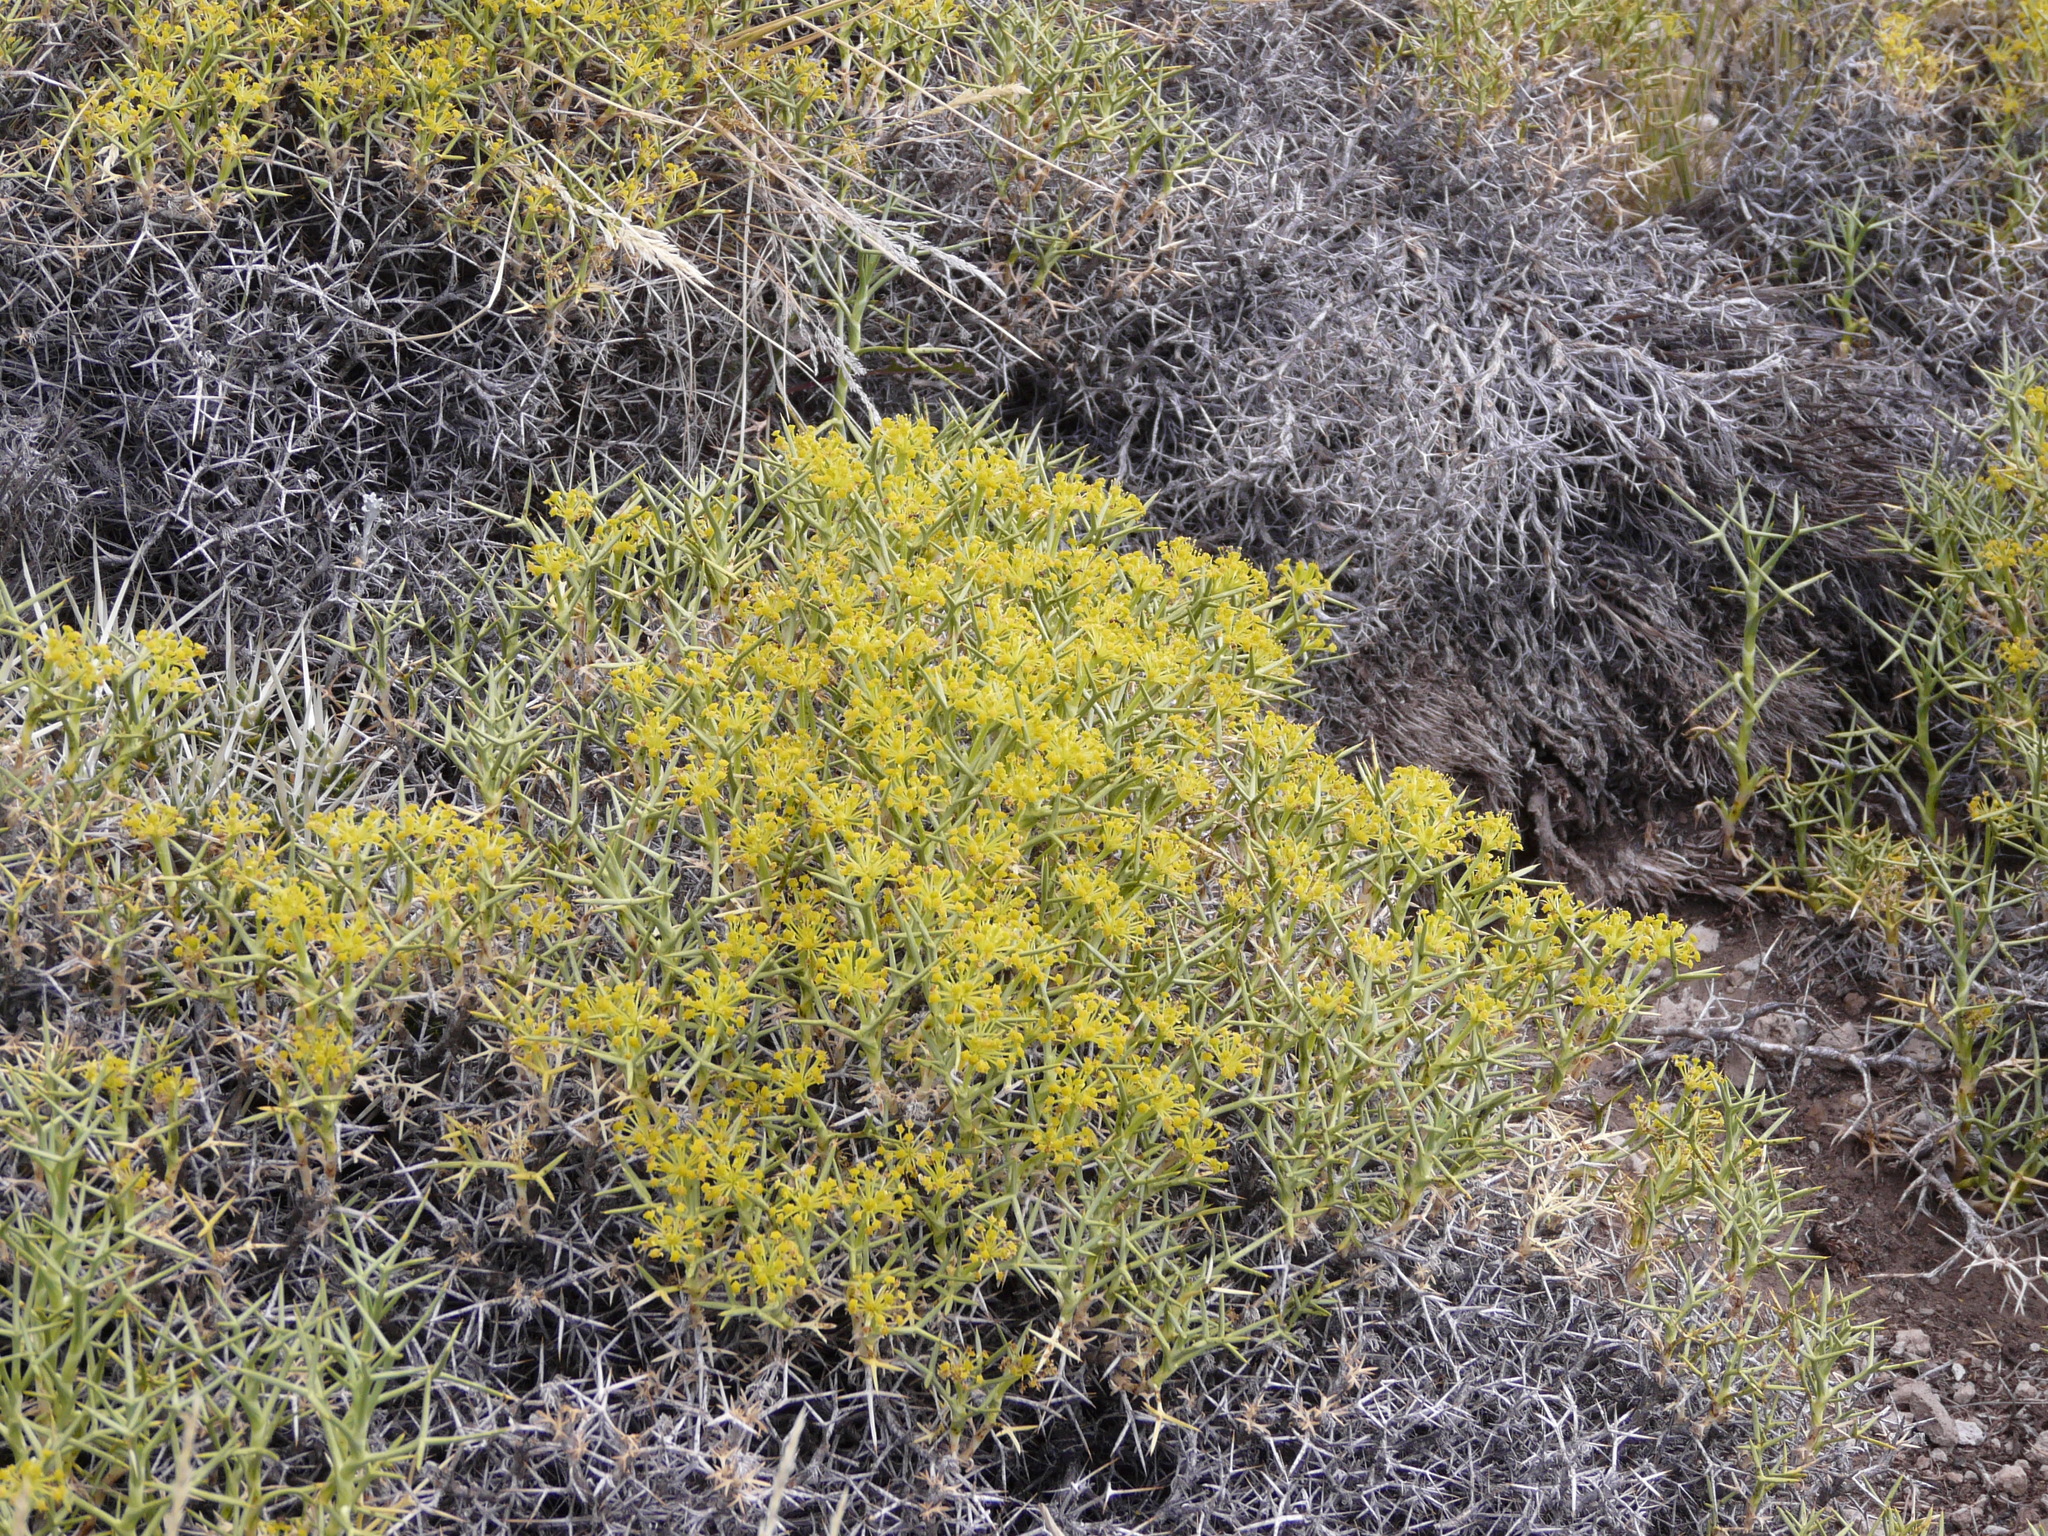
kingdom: Plantae
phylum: Tracheophyta
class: Magnoliopsida
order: Apiales
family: Apiaceae
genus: Azorella
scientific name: Azorella prolifera
